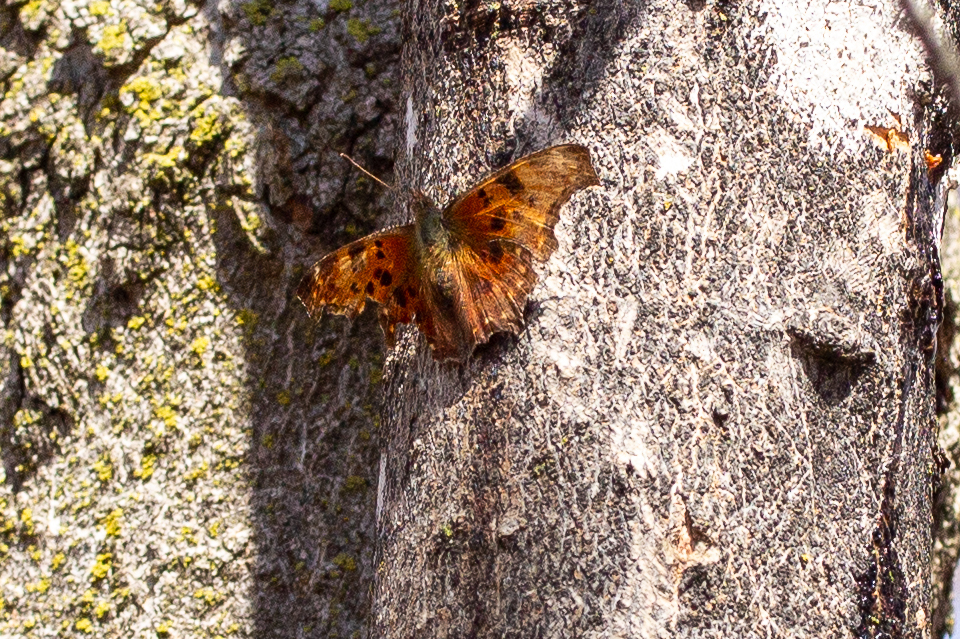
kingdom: Animalia
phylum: Arthropoda
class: Insecta
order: Lepidoptera
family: Nymphalidae
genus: Polygonia
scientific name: Polygonia comma
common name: Eastern comma
